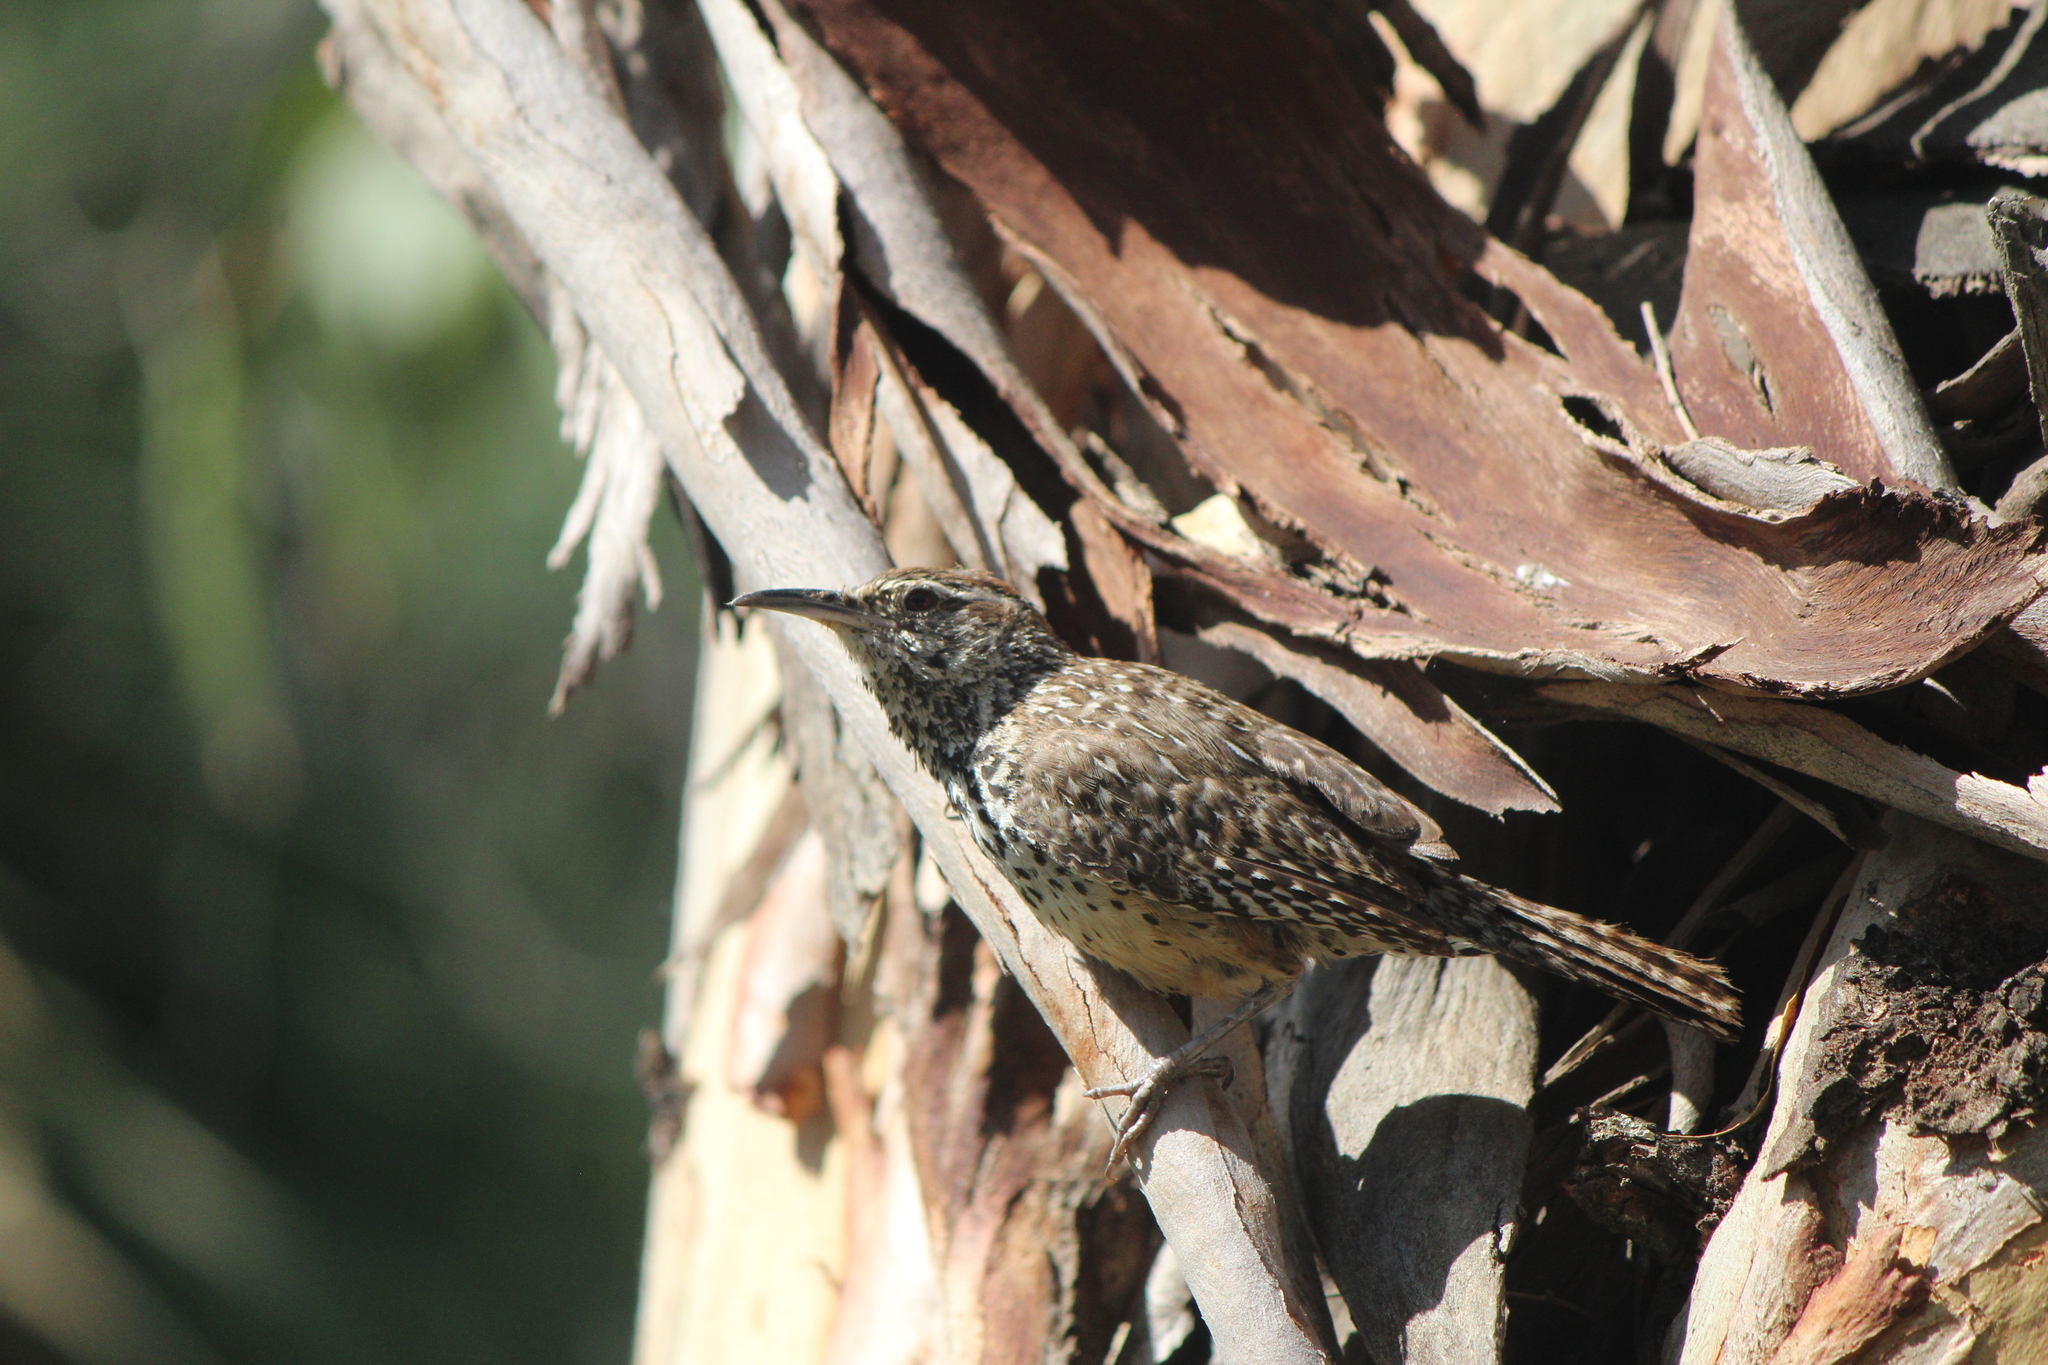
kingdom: Animalia
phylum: Chordata
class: Aves
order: Passeriformes
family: Troglodytidae
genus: Campylorhynchus
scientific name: Campylorhynchus brunneicapillus
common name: Cactus wren
